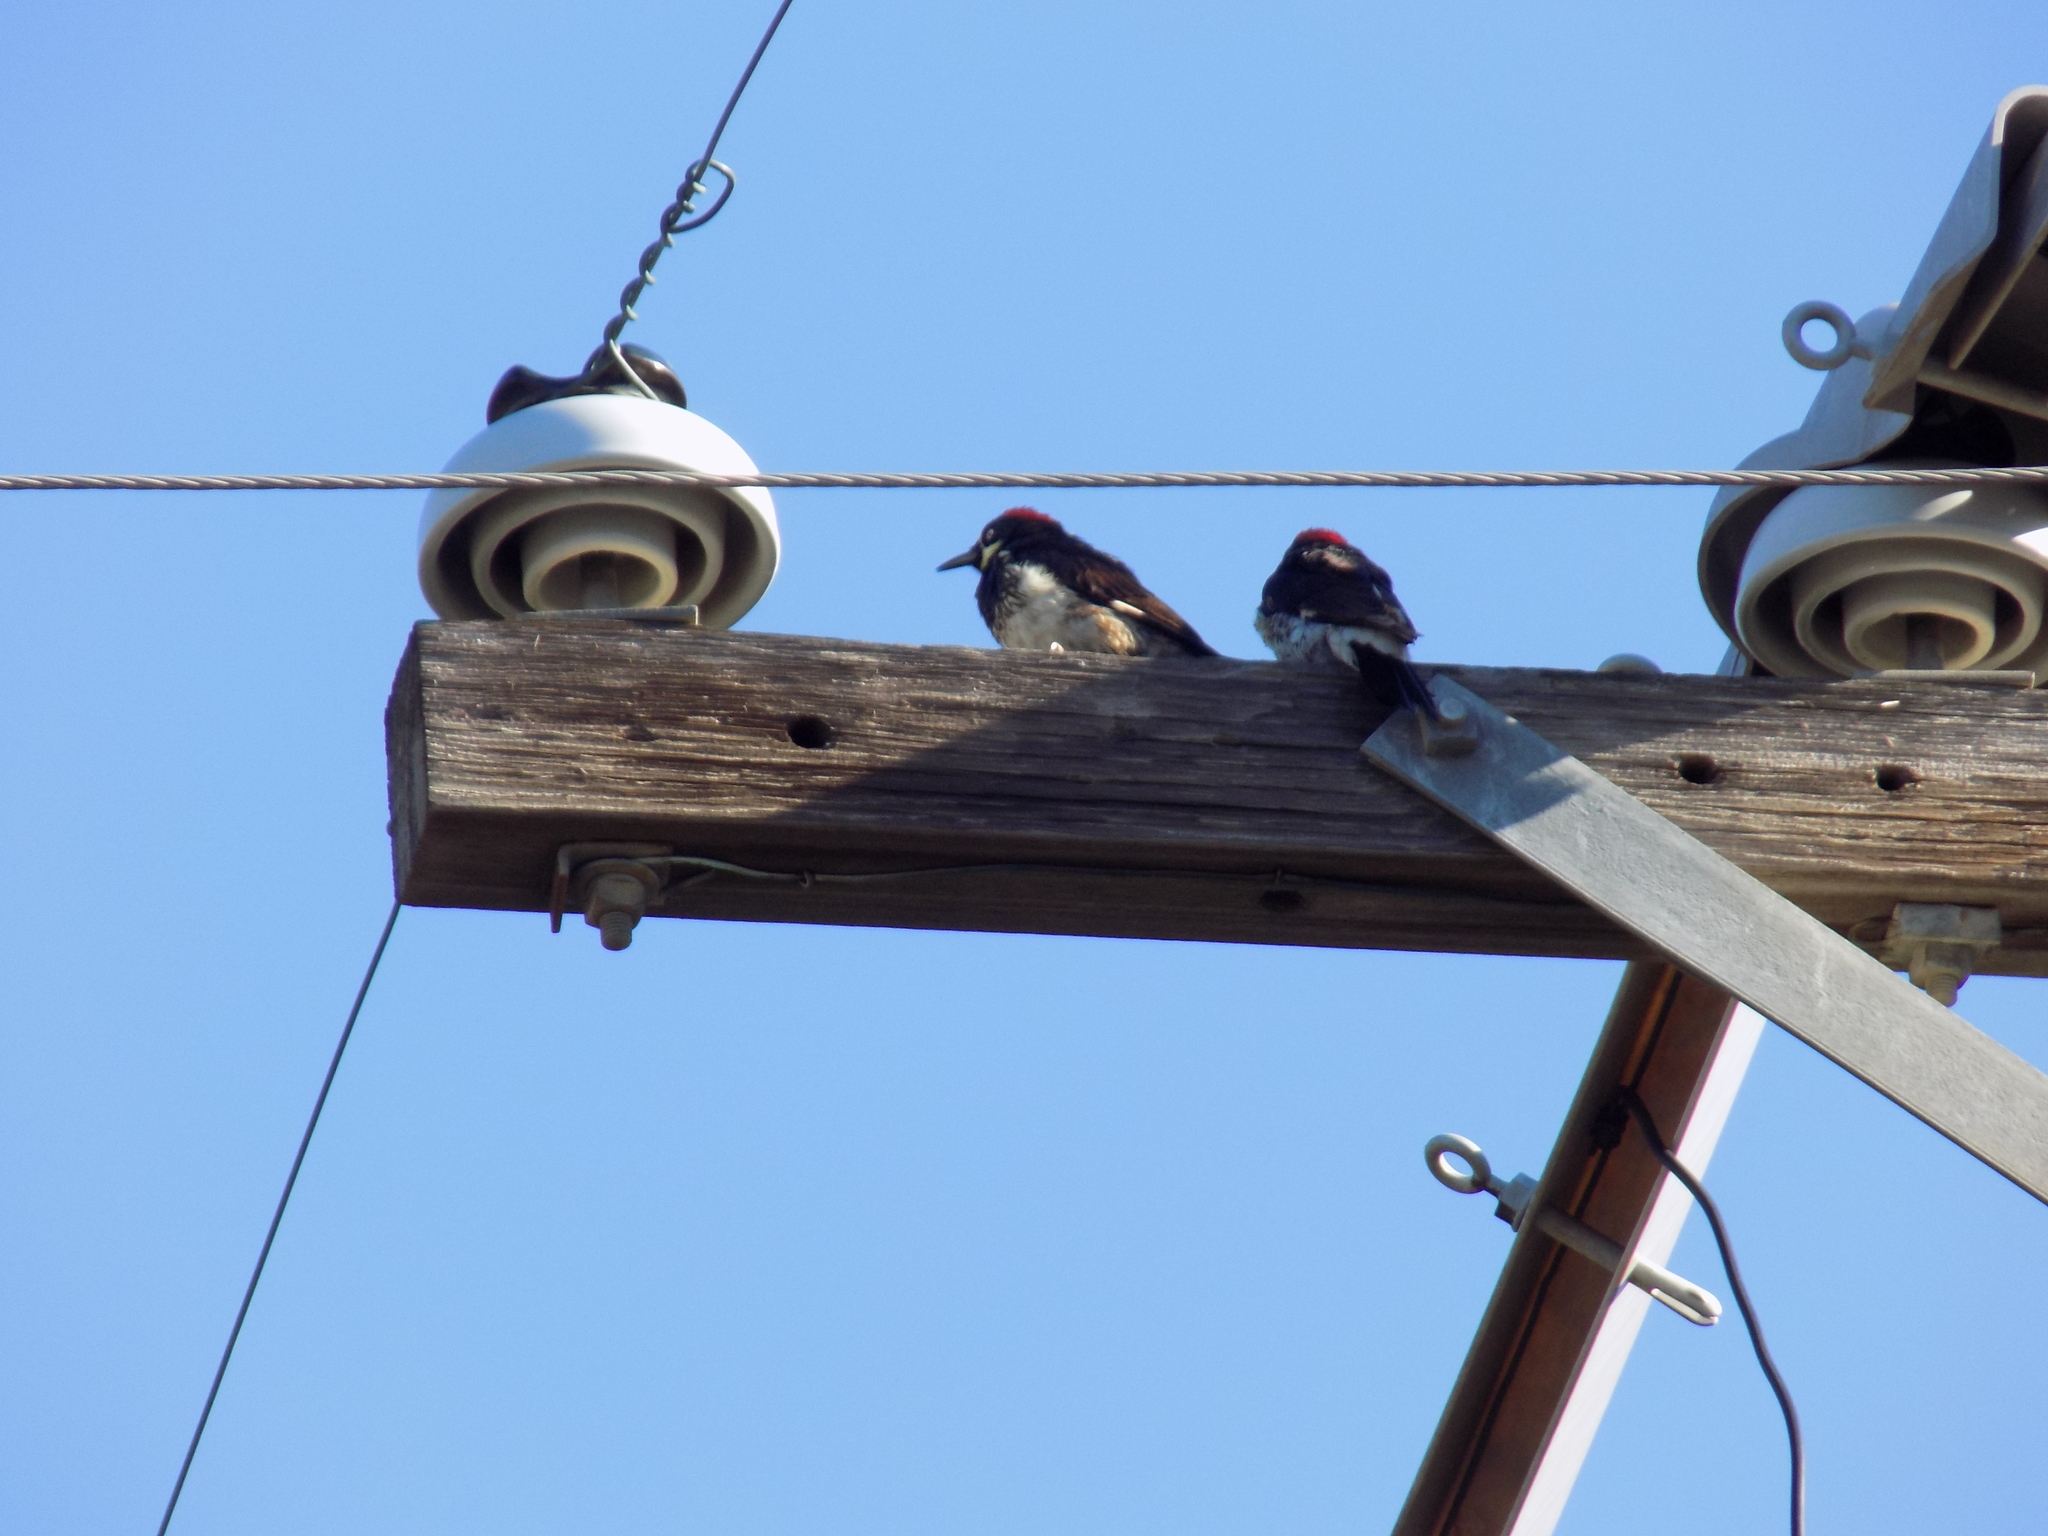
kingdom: Animalia
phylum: Chordata
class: Aves
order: Piciformes
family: Picidae
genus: Melanerpes
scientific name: Melanerpes formicivorus
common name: Acorn woodpecker
